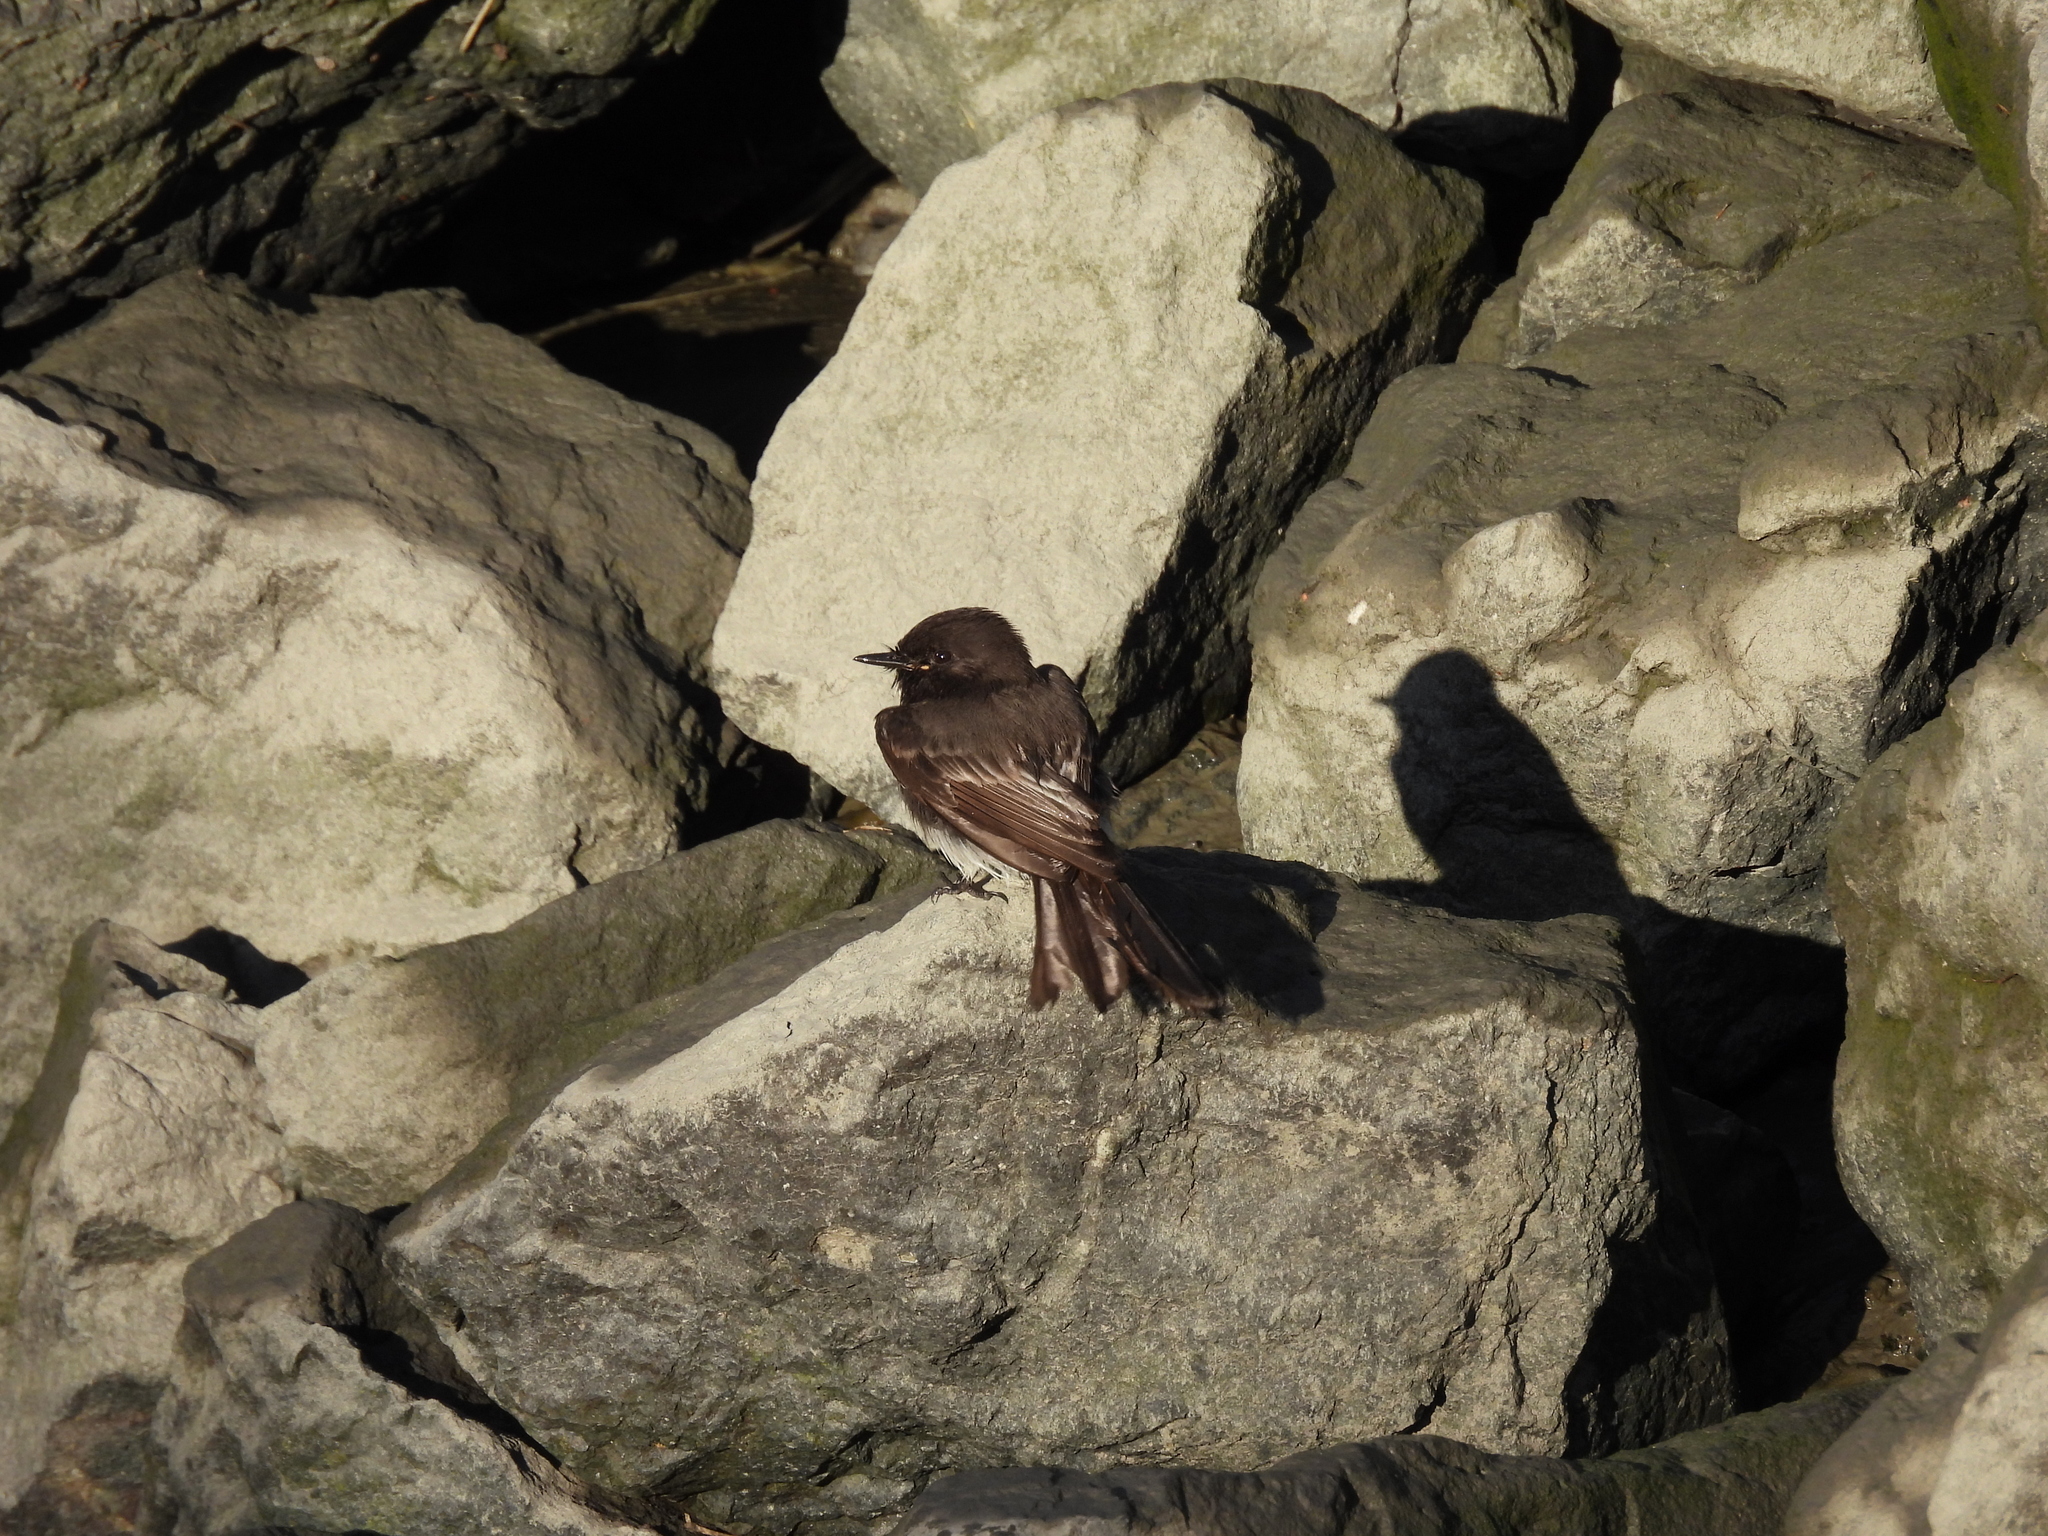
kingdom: Animalia
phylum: Chordata
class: Aves
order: Passeriformes
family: Tyrannidae
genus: Sayornis
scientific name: Sayornis nigricans
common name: Black phoebe
